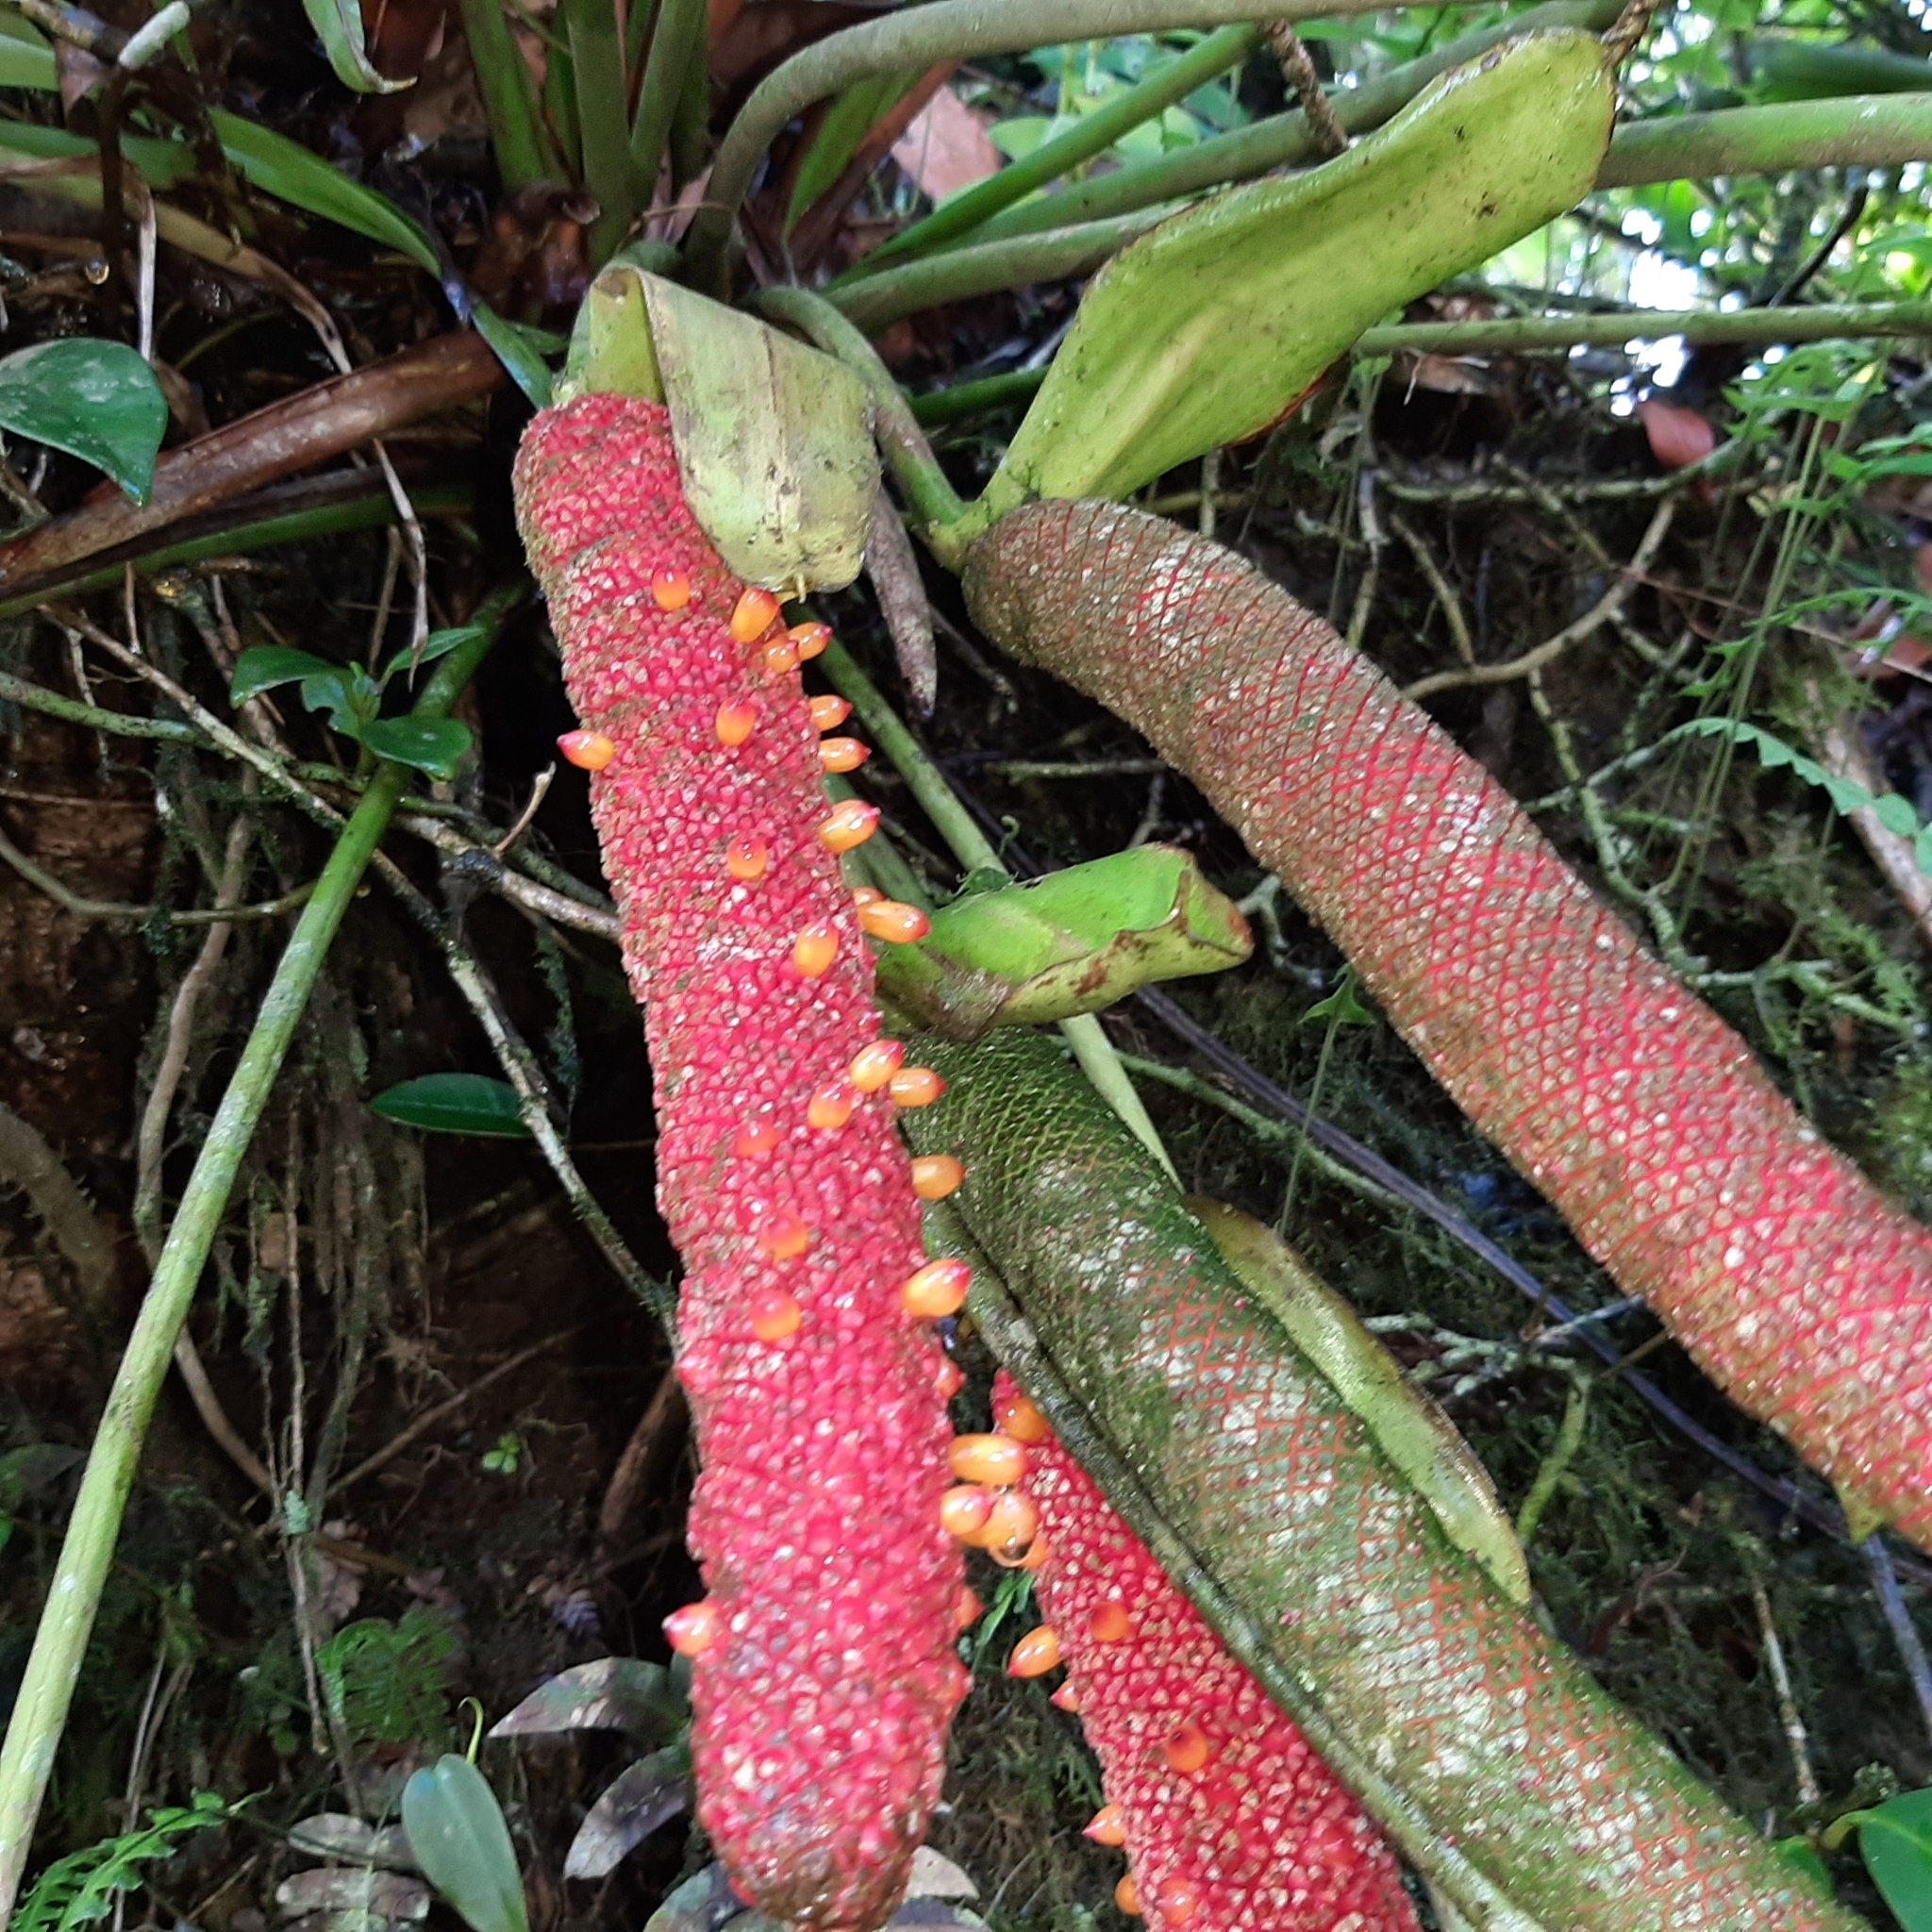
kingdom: Plantae
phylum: Tracheophyta
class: Liliopsida
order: Alismatales
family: Araceae
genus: Anthurium
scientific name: Anthurium tilaranense
